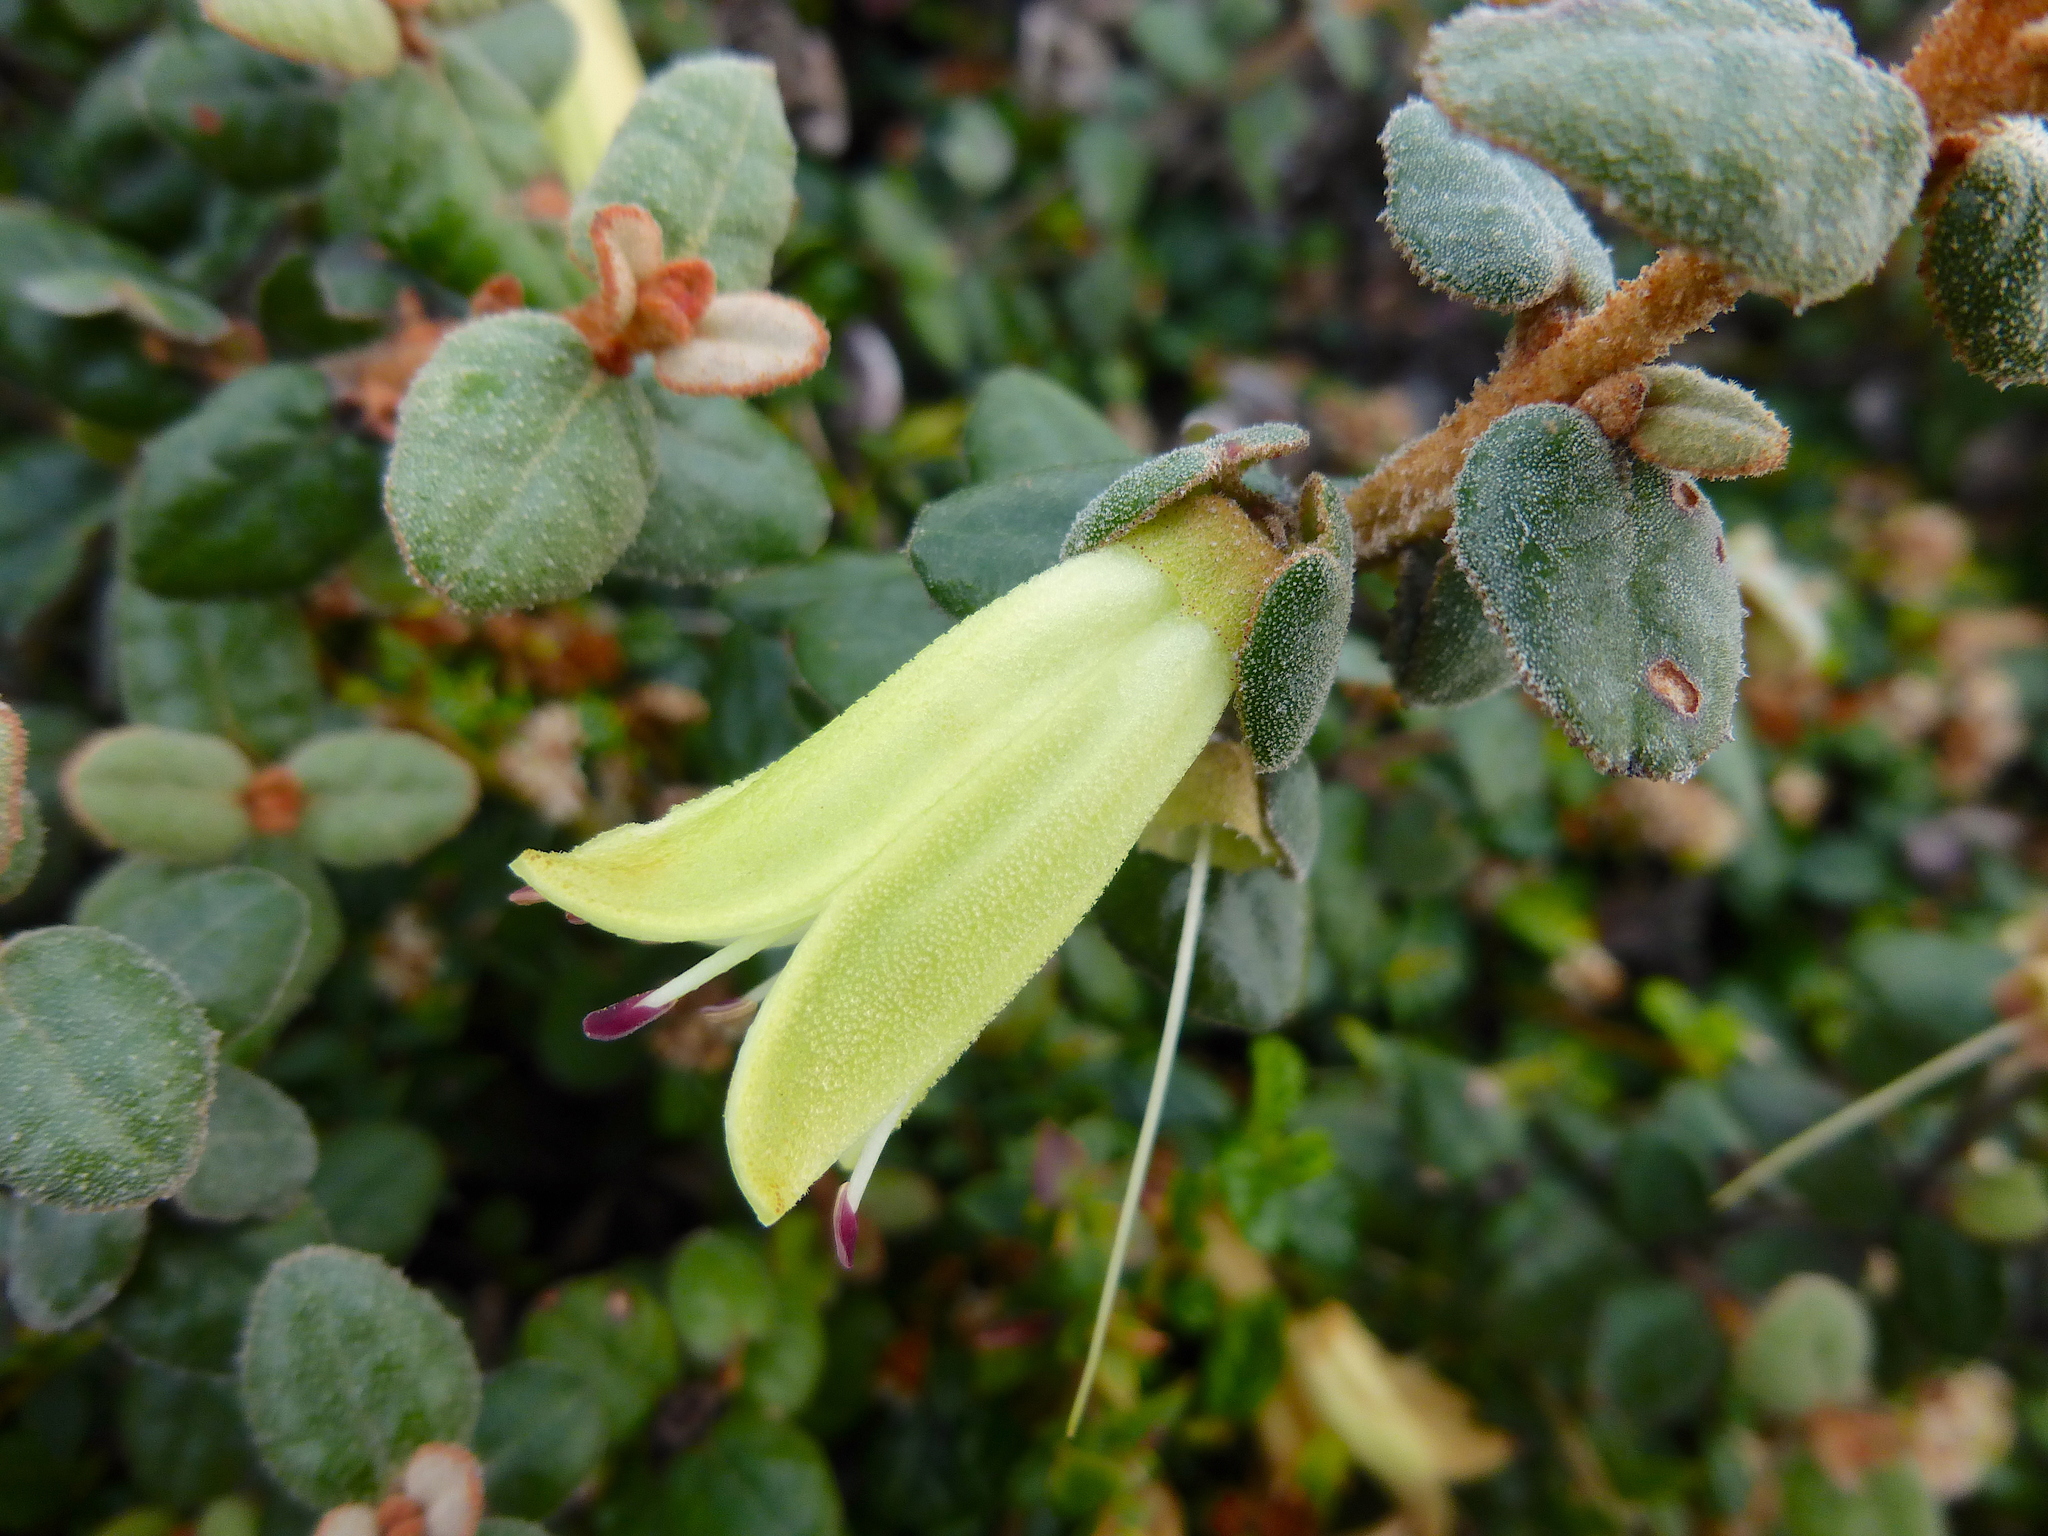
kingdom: Plantae
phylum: Tracheophyta
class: Magnoliopsida
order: Sapindales
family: Rutaceae
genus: Correa
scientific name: Correa reflexa
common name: Common correa
